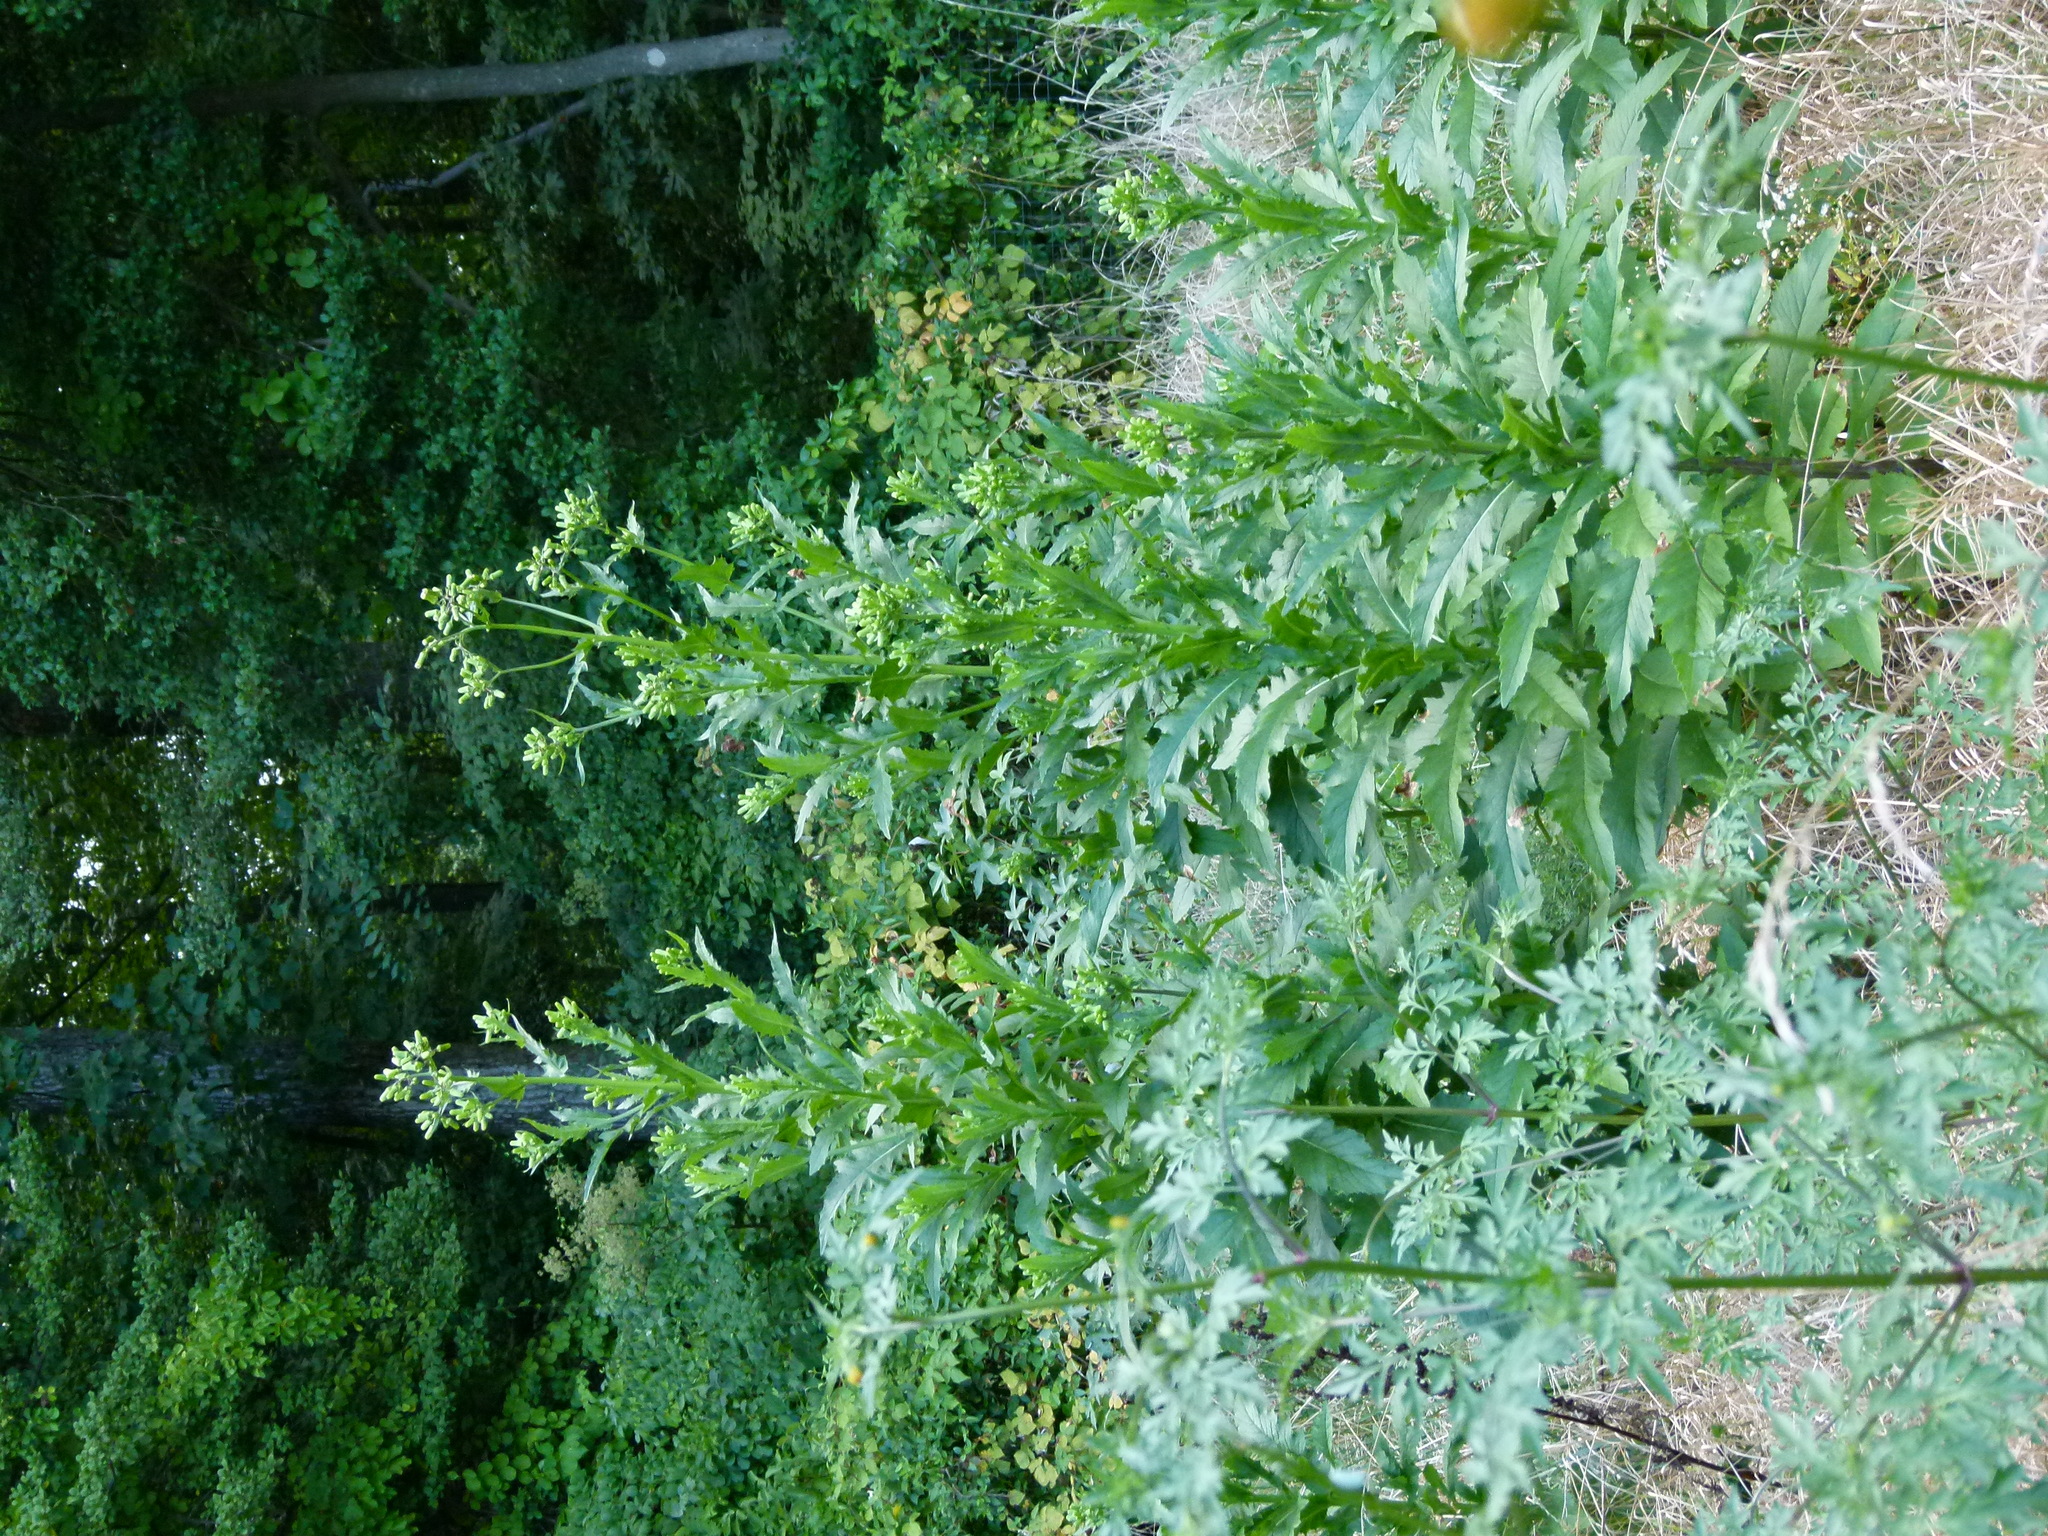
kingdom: Plantae
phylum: Tracheophyta
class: Magnoliopsida
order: Asterales
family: Asteraceae
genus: Erechtites
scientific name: Erechtites hieraciifolius
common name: American burnweed
